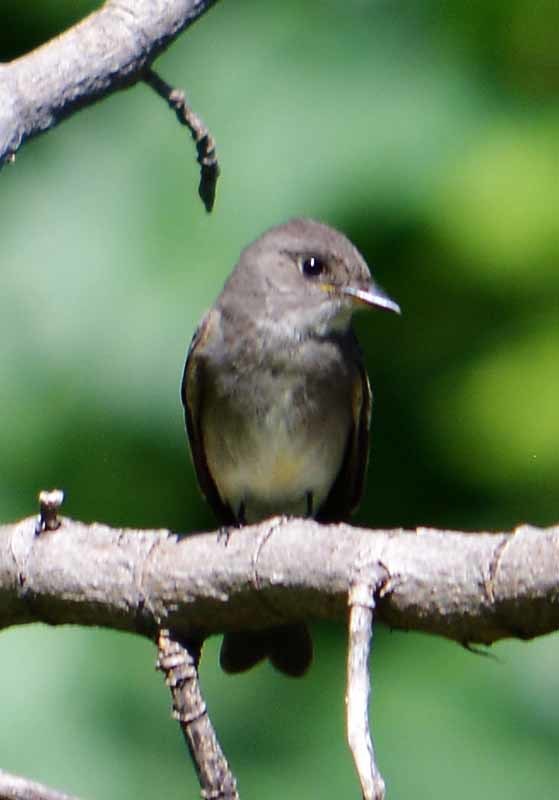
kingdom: Animalia
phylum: Chordata
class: Aves
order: Passeriformes
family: Tyrannidae
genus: Contopus
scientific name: Contopus sordidulus
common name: Western wood-pewee
